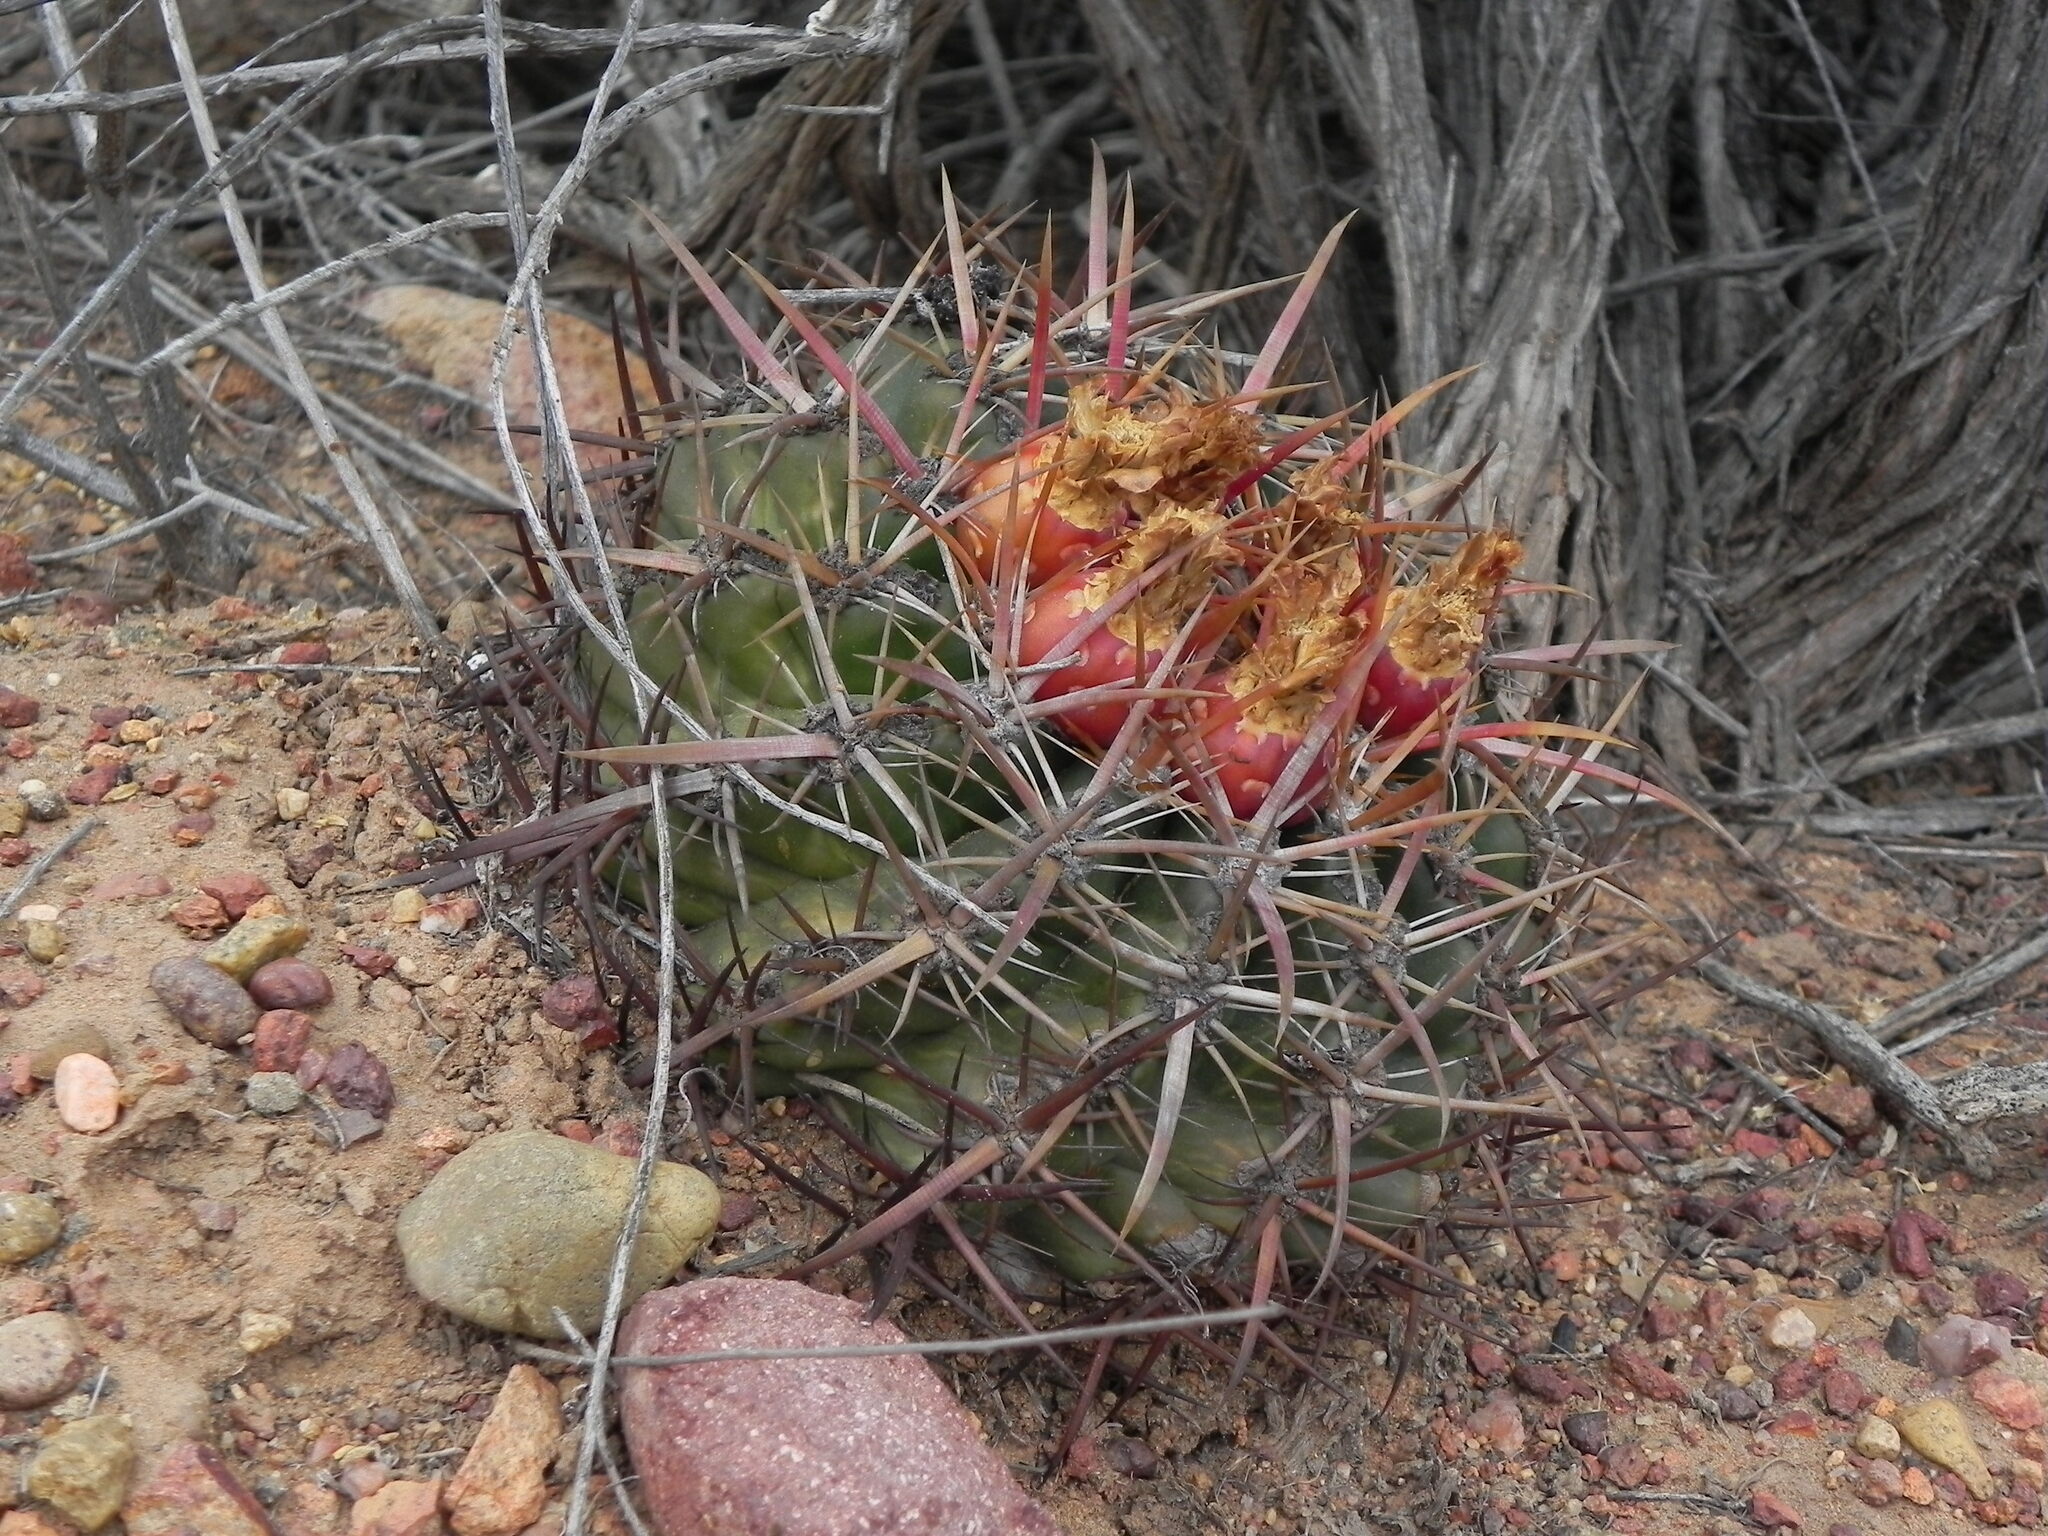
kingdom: Plantae
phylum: Tracheophyta
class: Magnoliopsida
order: Caryophyllales
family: Cactaceae
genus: Ferocactus
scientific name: Ferocactus viridescens
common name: San diego barrel cactus
